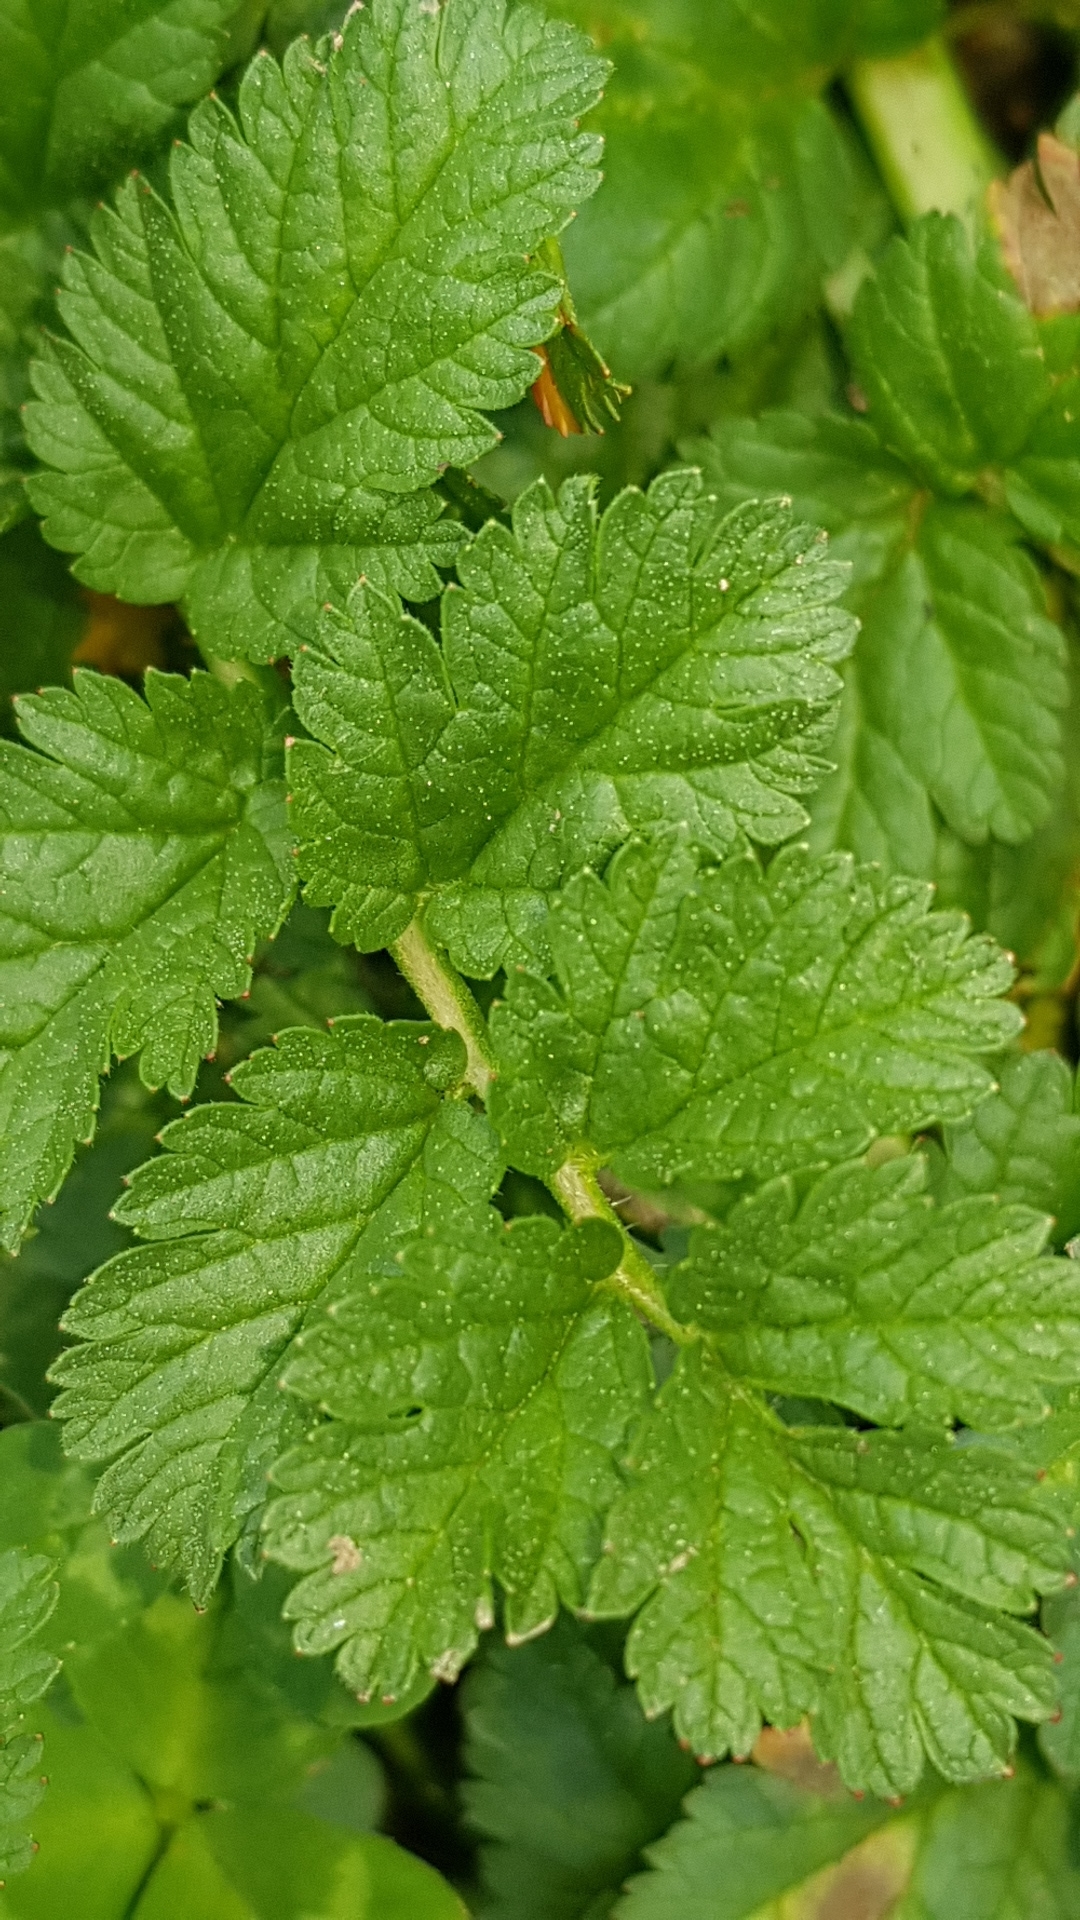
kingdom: Plantae
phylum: Tracheophyta
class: Magnoliopsida
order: Geraniales
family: Geraniaceae
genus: Erodium
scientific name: Erodium moschatum
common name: Musk stork's-bill
